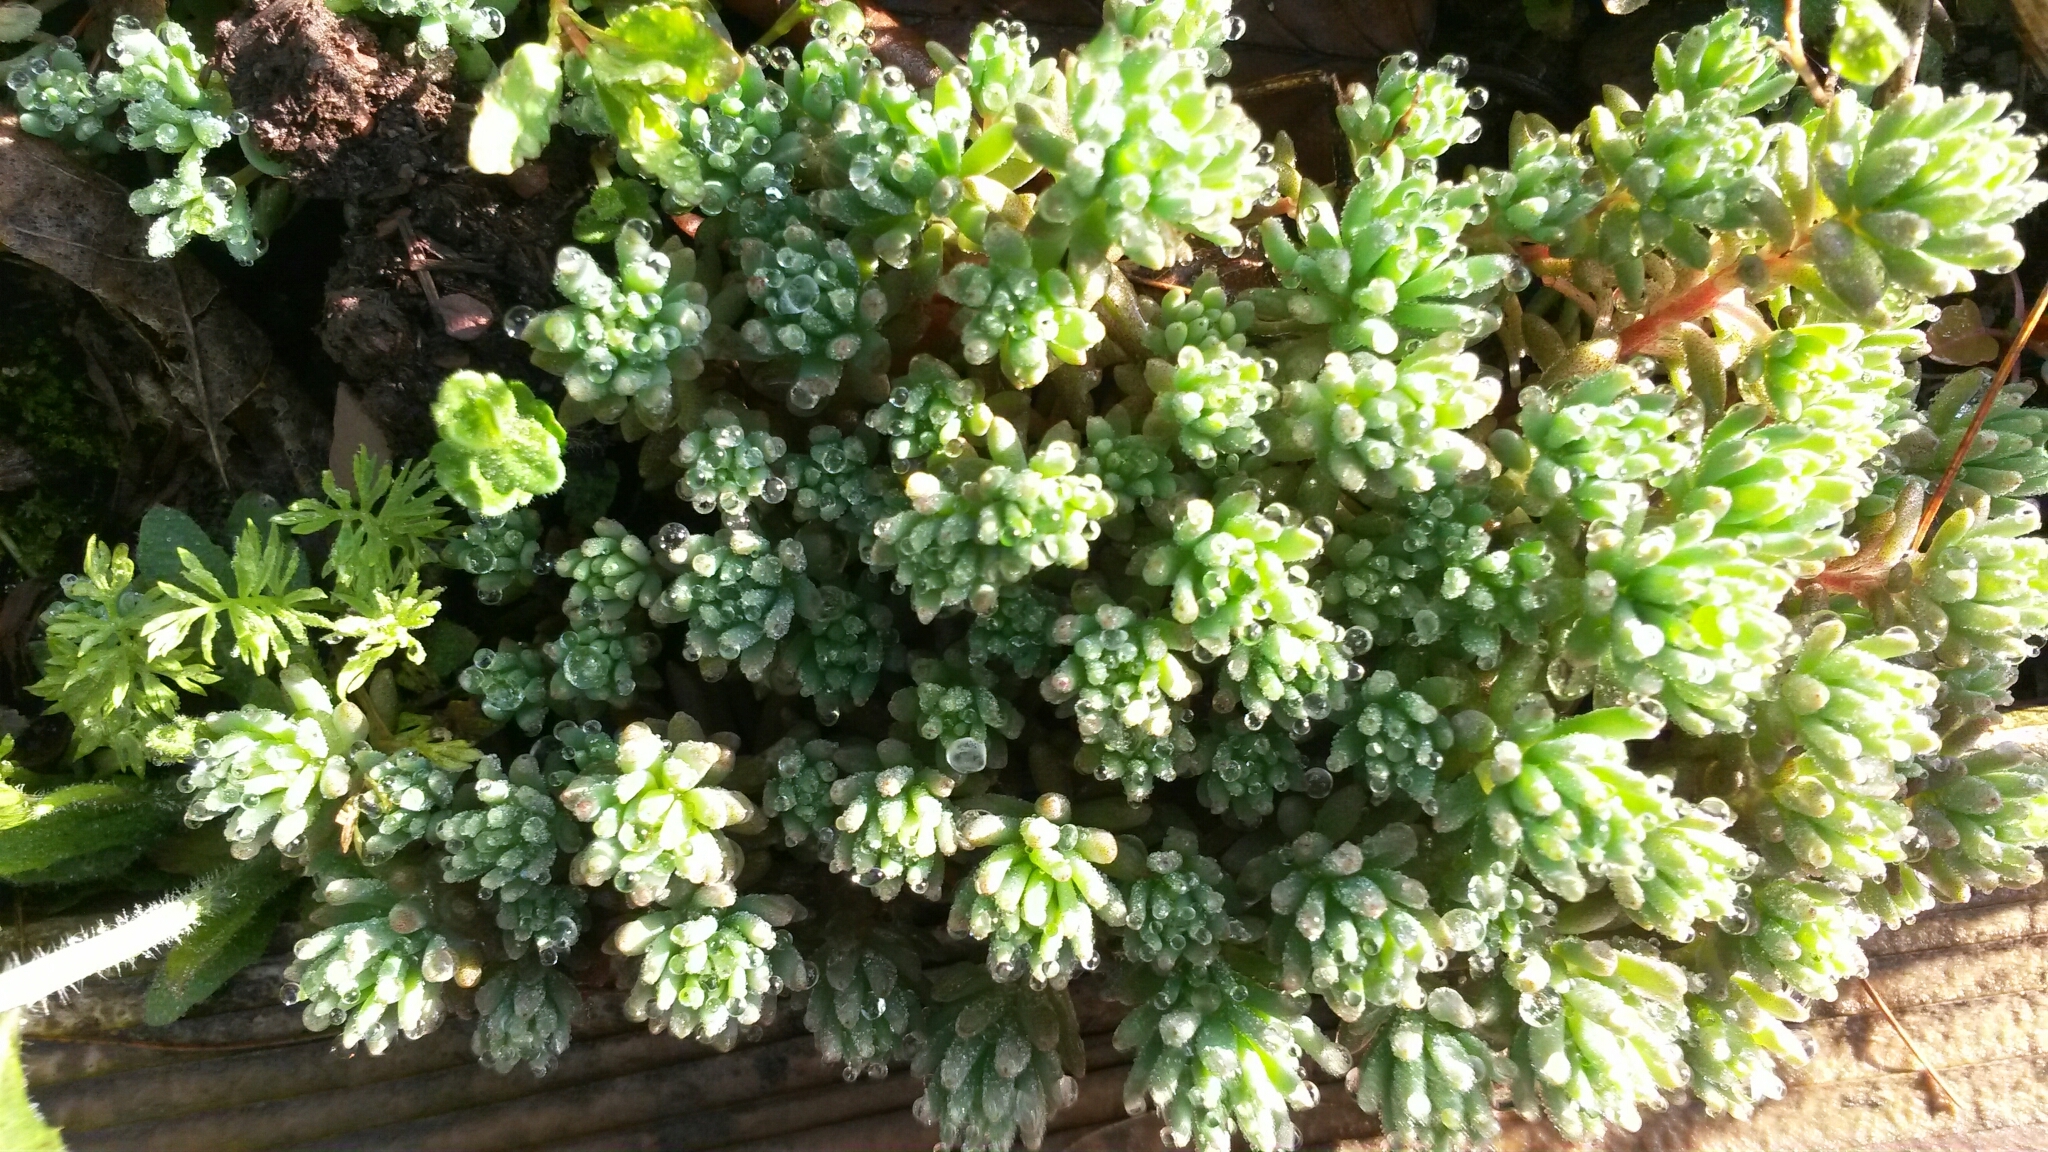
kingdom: Plantae
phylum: Tracheophyta
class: Magnoliopsida
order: Saxifragales
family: Crassulaceae
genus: Sedum
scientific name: Sedum hispanicum
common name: Spanish stonecrop
